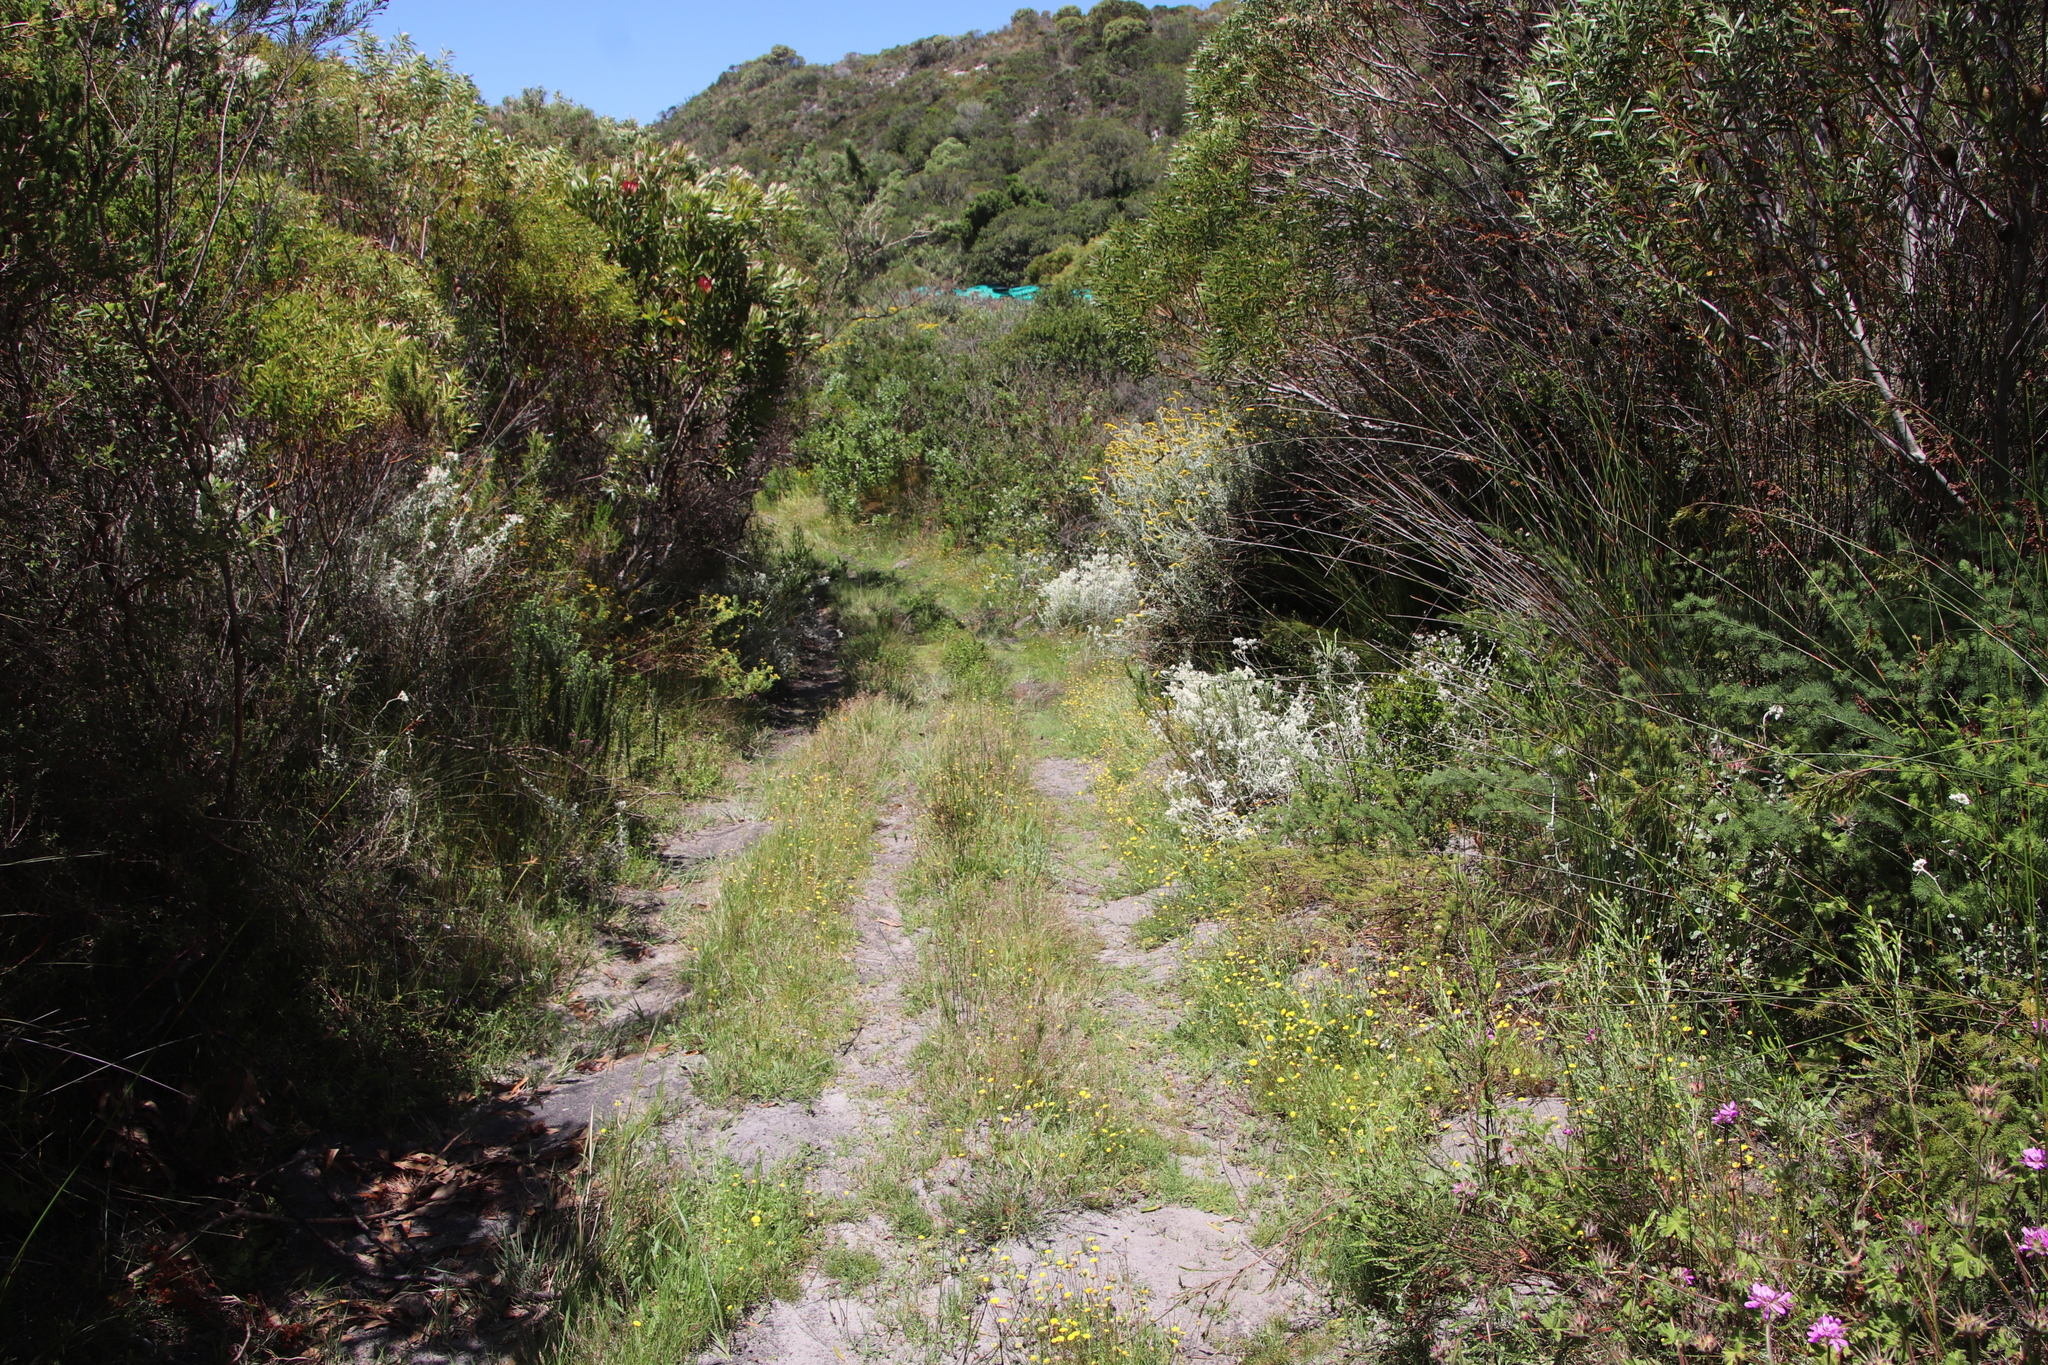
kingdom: Plantae
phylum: Tracheophyta
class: Magnoliopsida
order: Asterales
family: Asteraceae
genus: Cotula
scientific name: Cotula pruinosa
